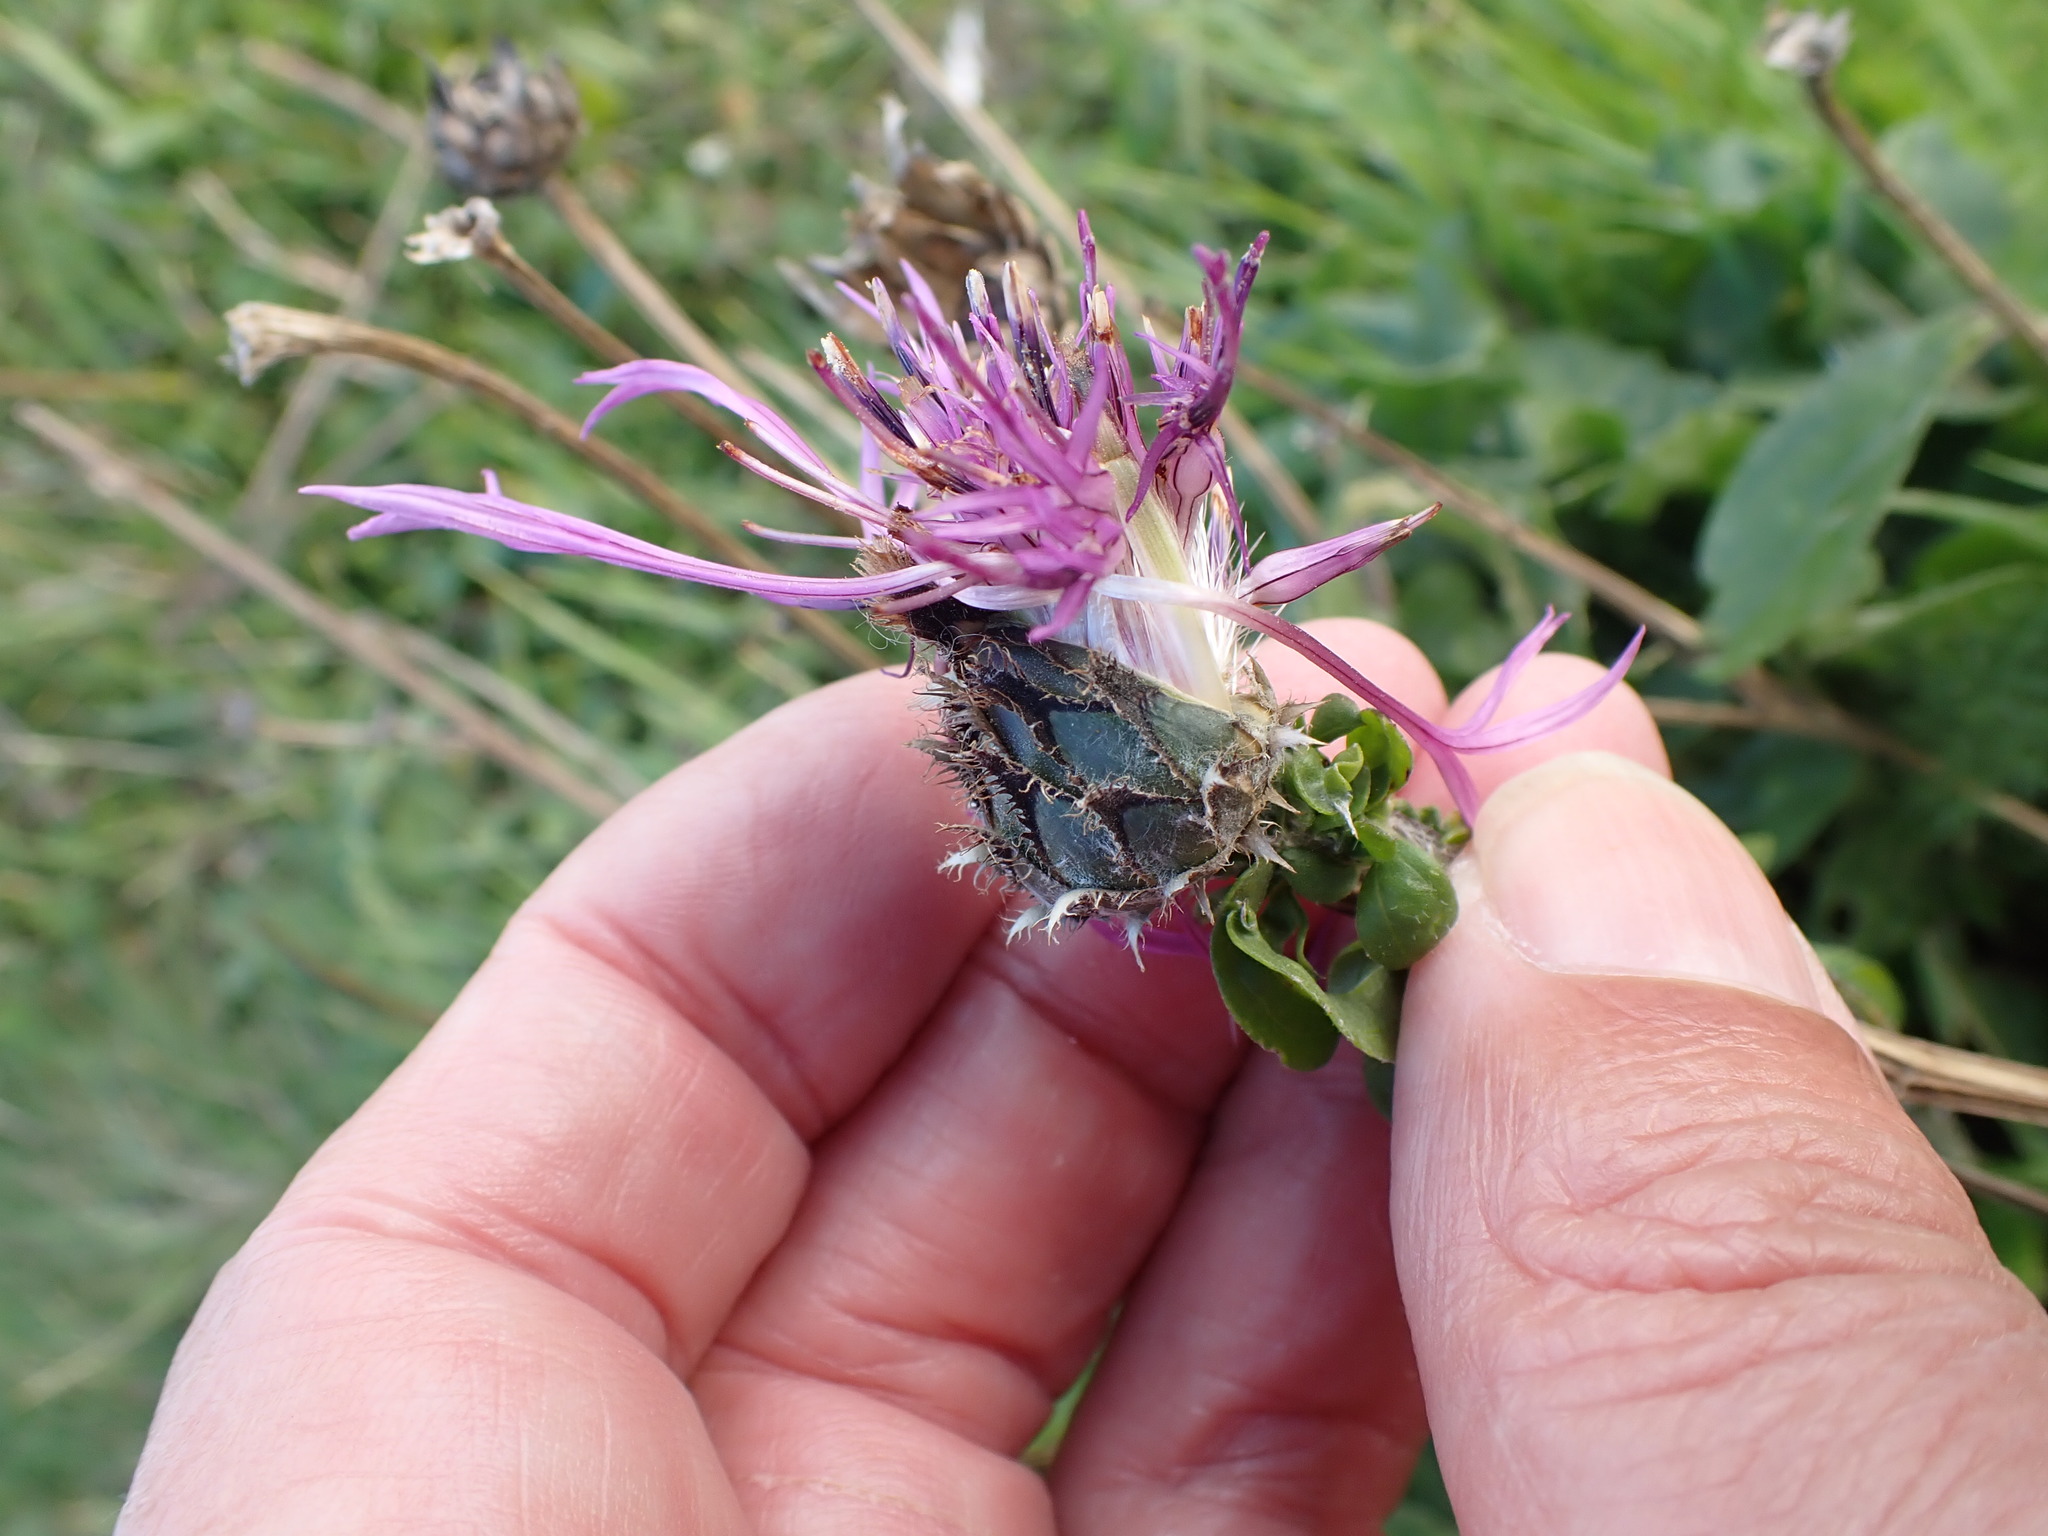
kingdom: Plantae
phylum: Tracheophyta
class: Magnoliopsida
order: Asterales
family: Asteraceae
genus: Centaurea
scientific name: Centaurea scabiosa
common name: Greater knapweed
